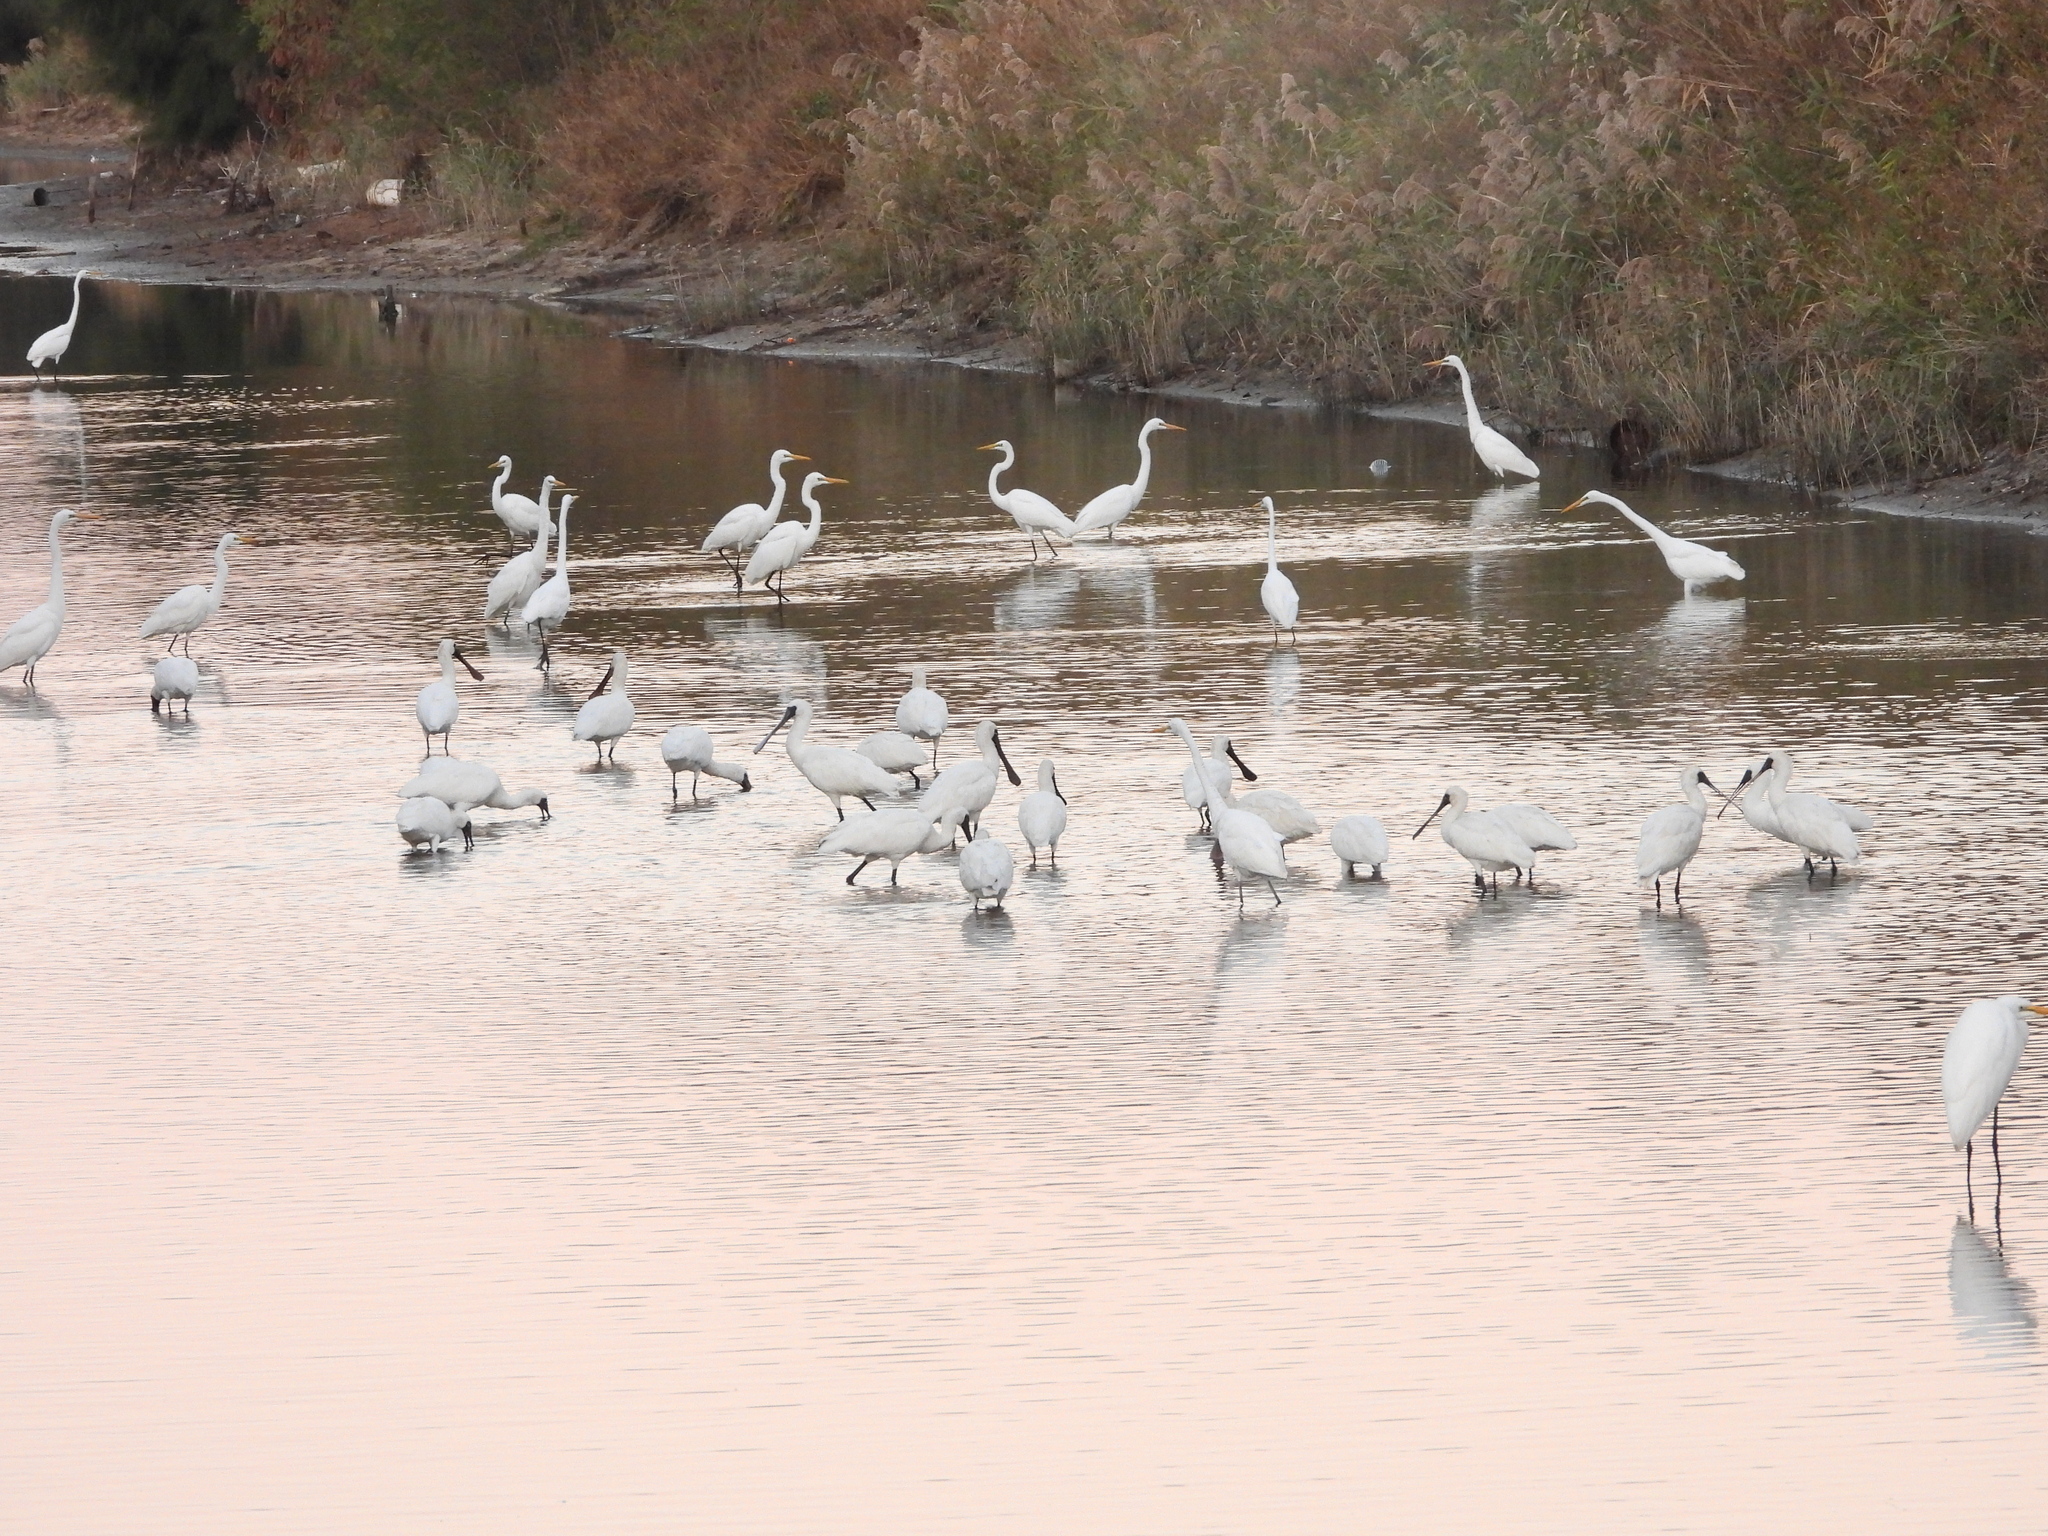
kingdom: Animalia
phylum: Chordata
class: Aves
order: Pelecaniformes
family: Threskiornithidae
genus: Platalea
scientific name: Platalea minor
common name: Black-faced spoonbill
